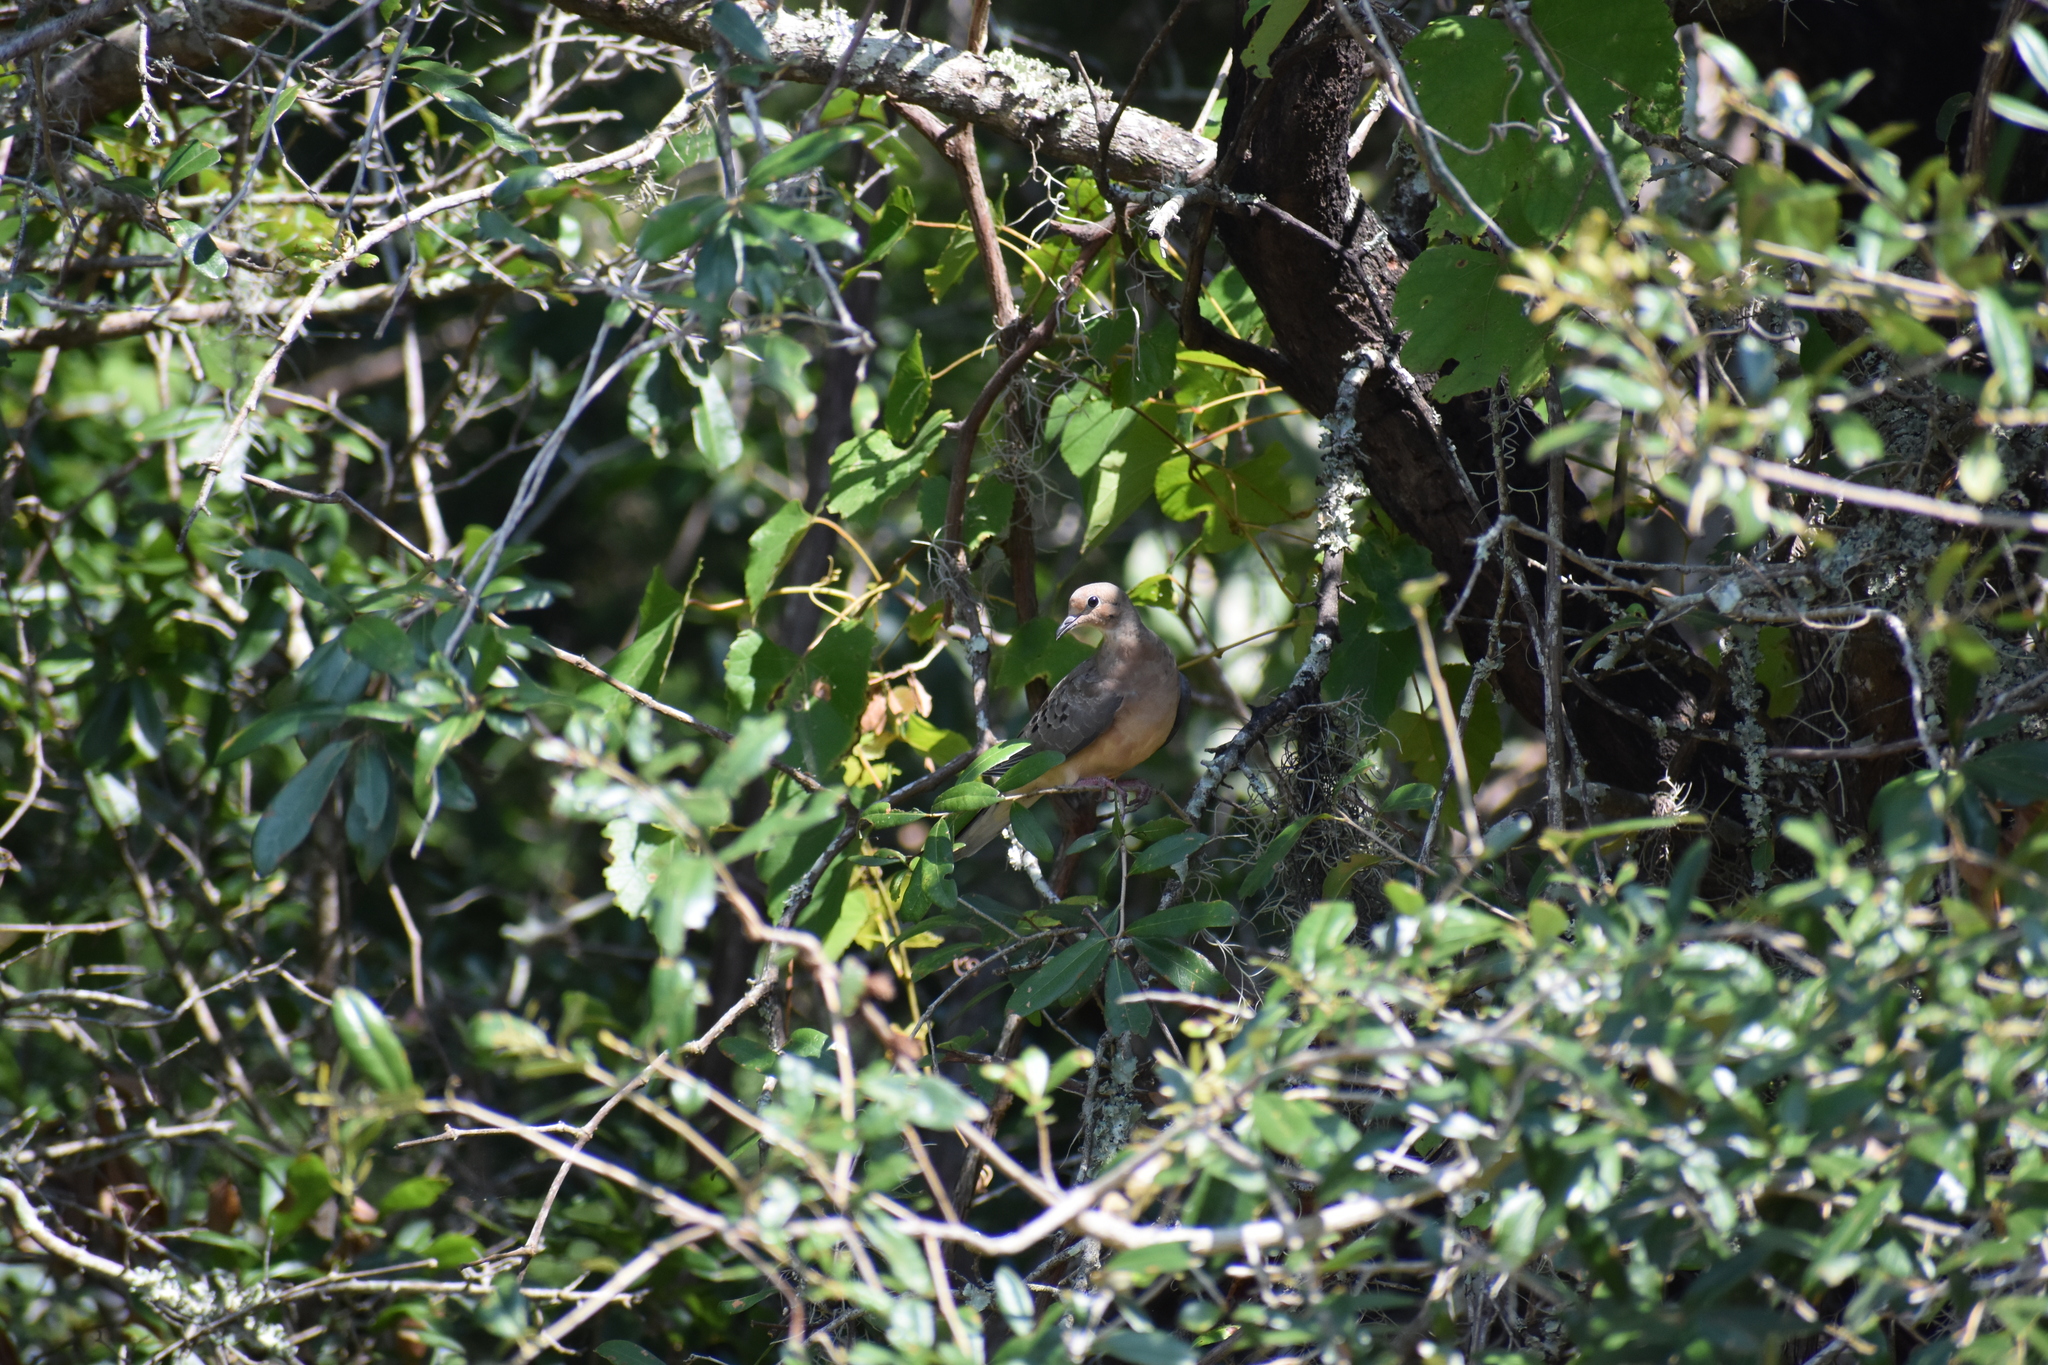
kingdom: Animalia
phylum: Chordata
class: Aves
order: Columbiformes
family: Columbidae
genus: Zenaida
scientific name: Zenaida macroura
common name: Mourning dove
